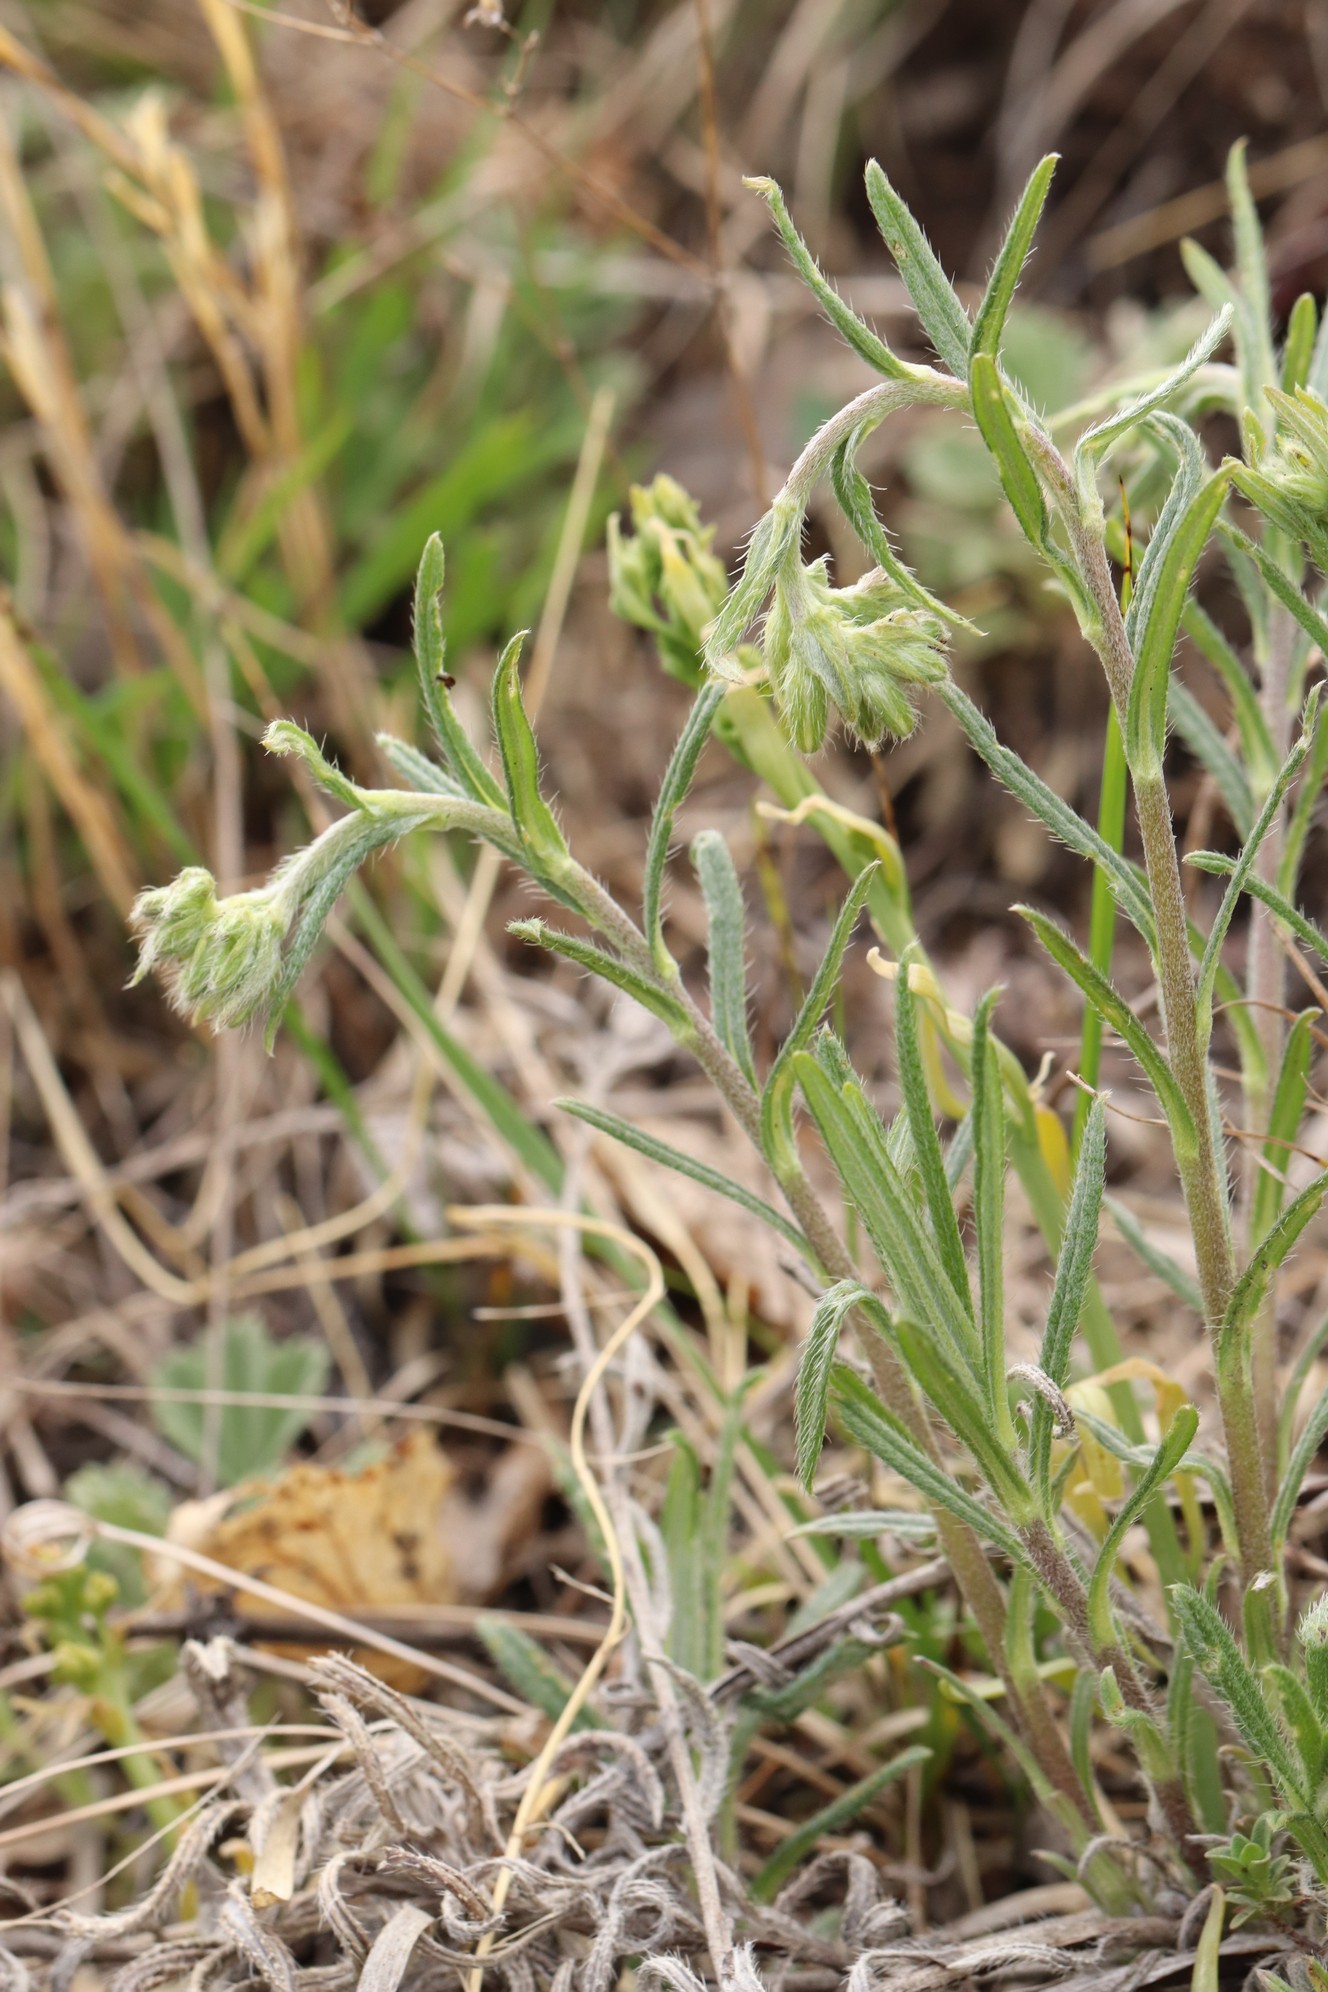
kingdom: Plantae
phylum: Tracheophyta
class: Magnoliopsida
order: Boraginales
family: Boraginaceae
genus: Onosma
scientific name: Onosma simplicissima
